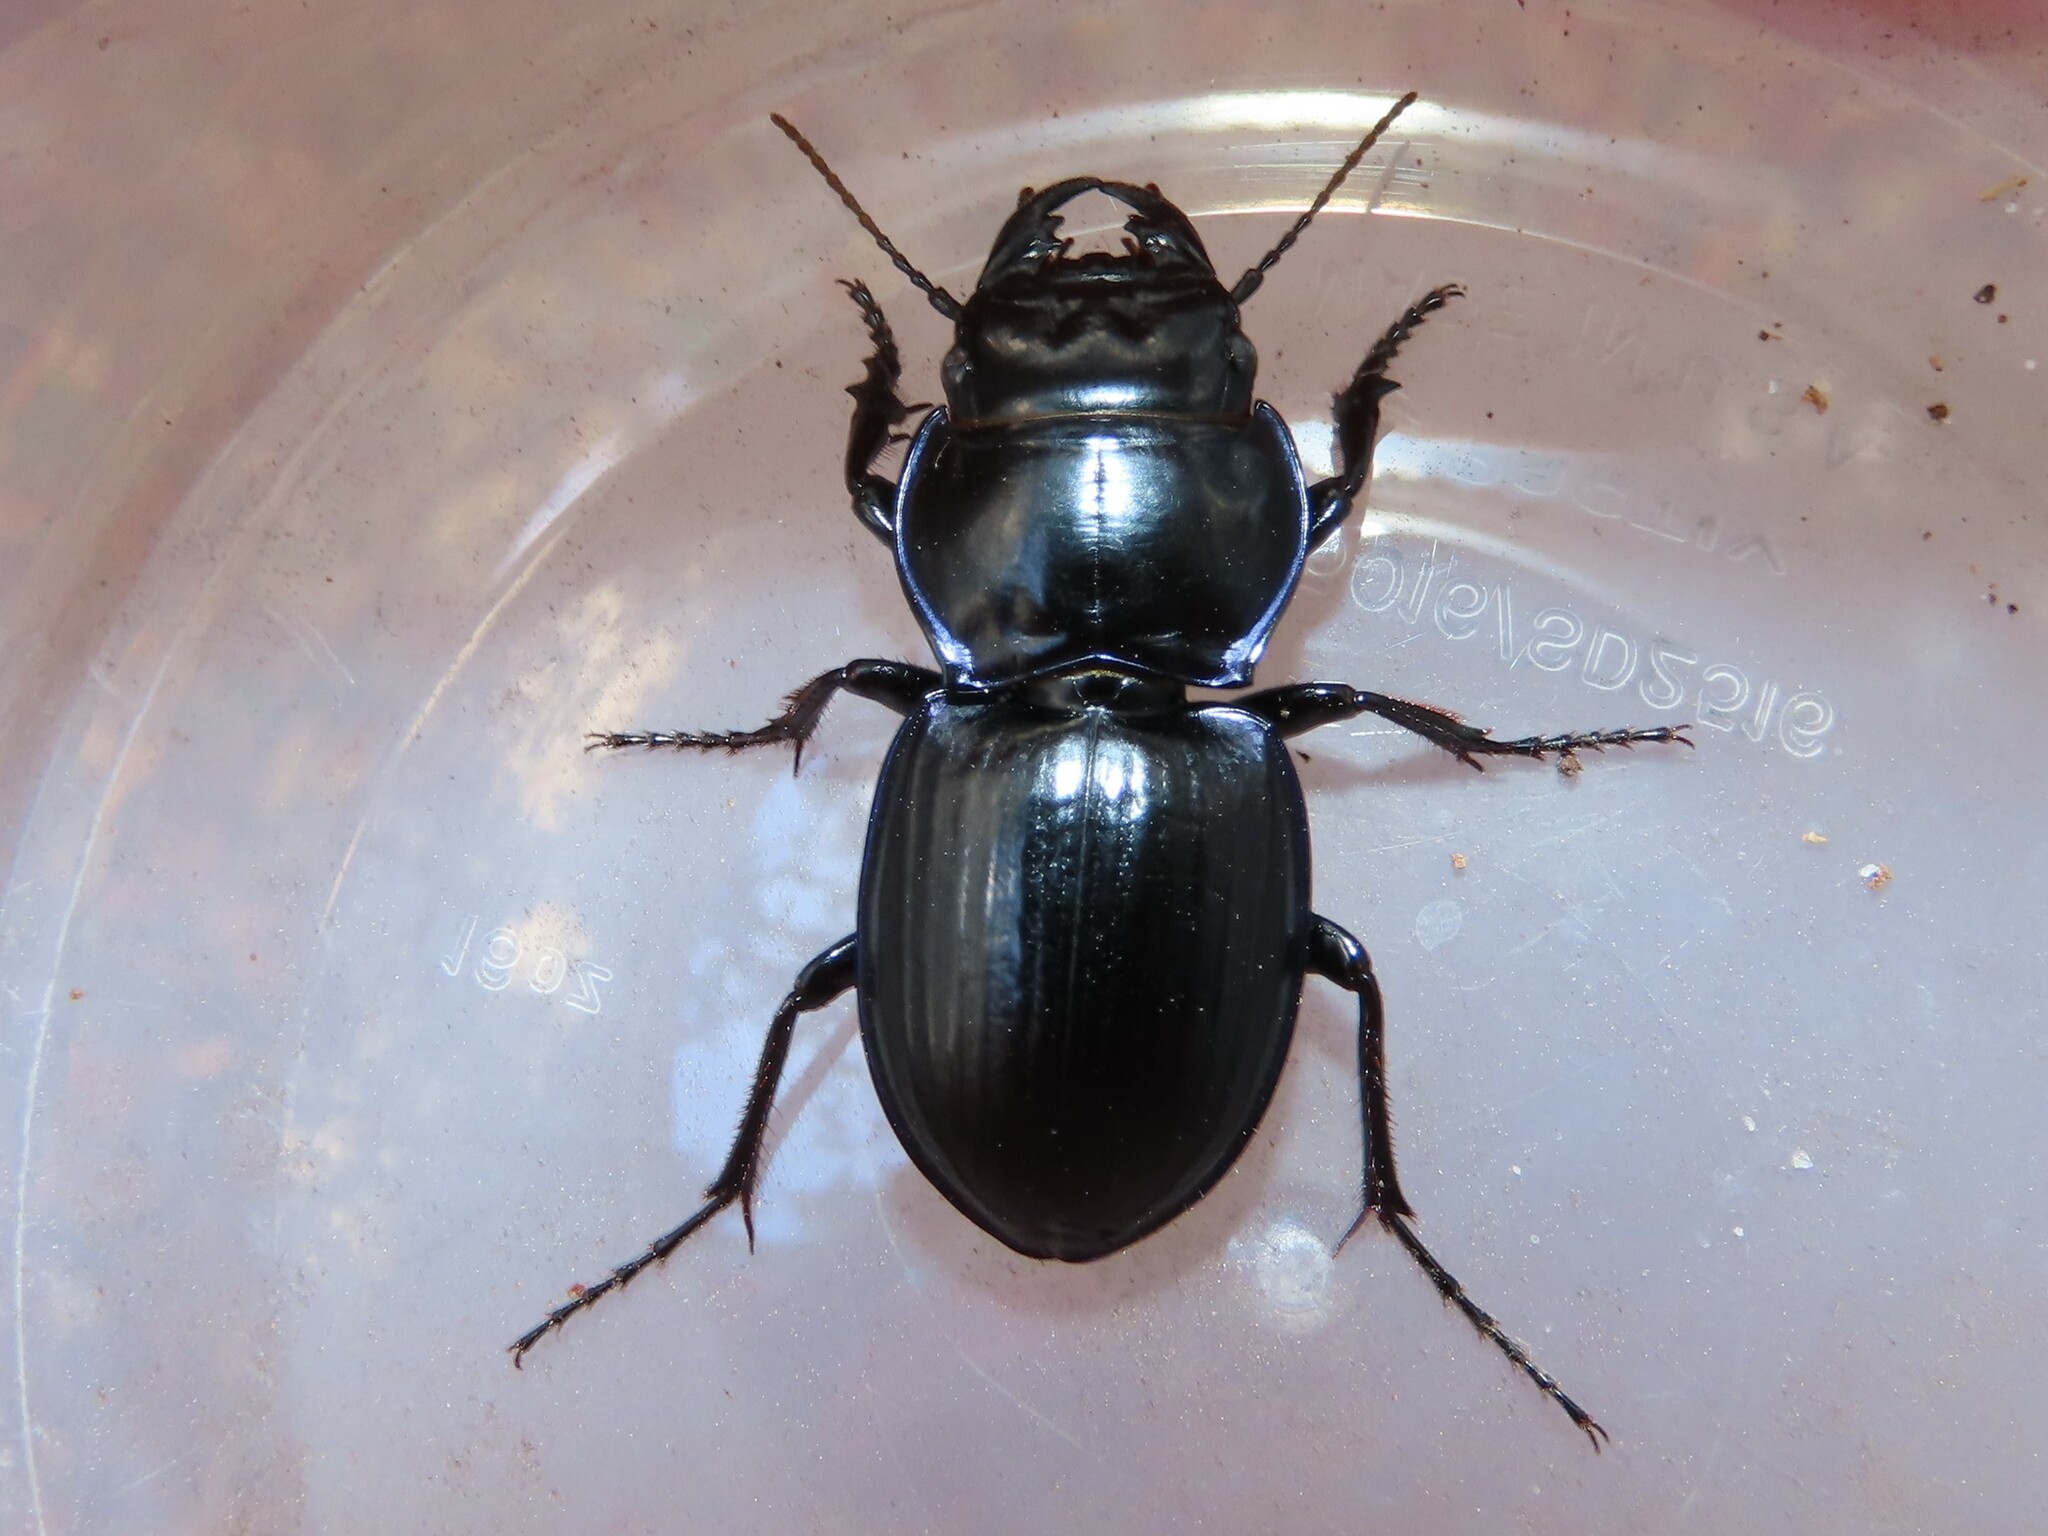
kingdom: Animalia
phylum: Arthropoda
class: Insecta
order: Coleoptera
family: Carabidae
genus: Pasimachus
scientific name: Pasimachus strenuus
